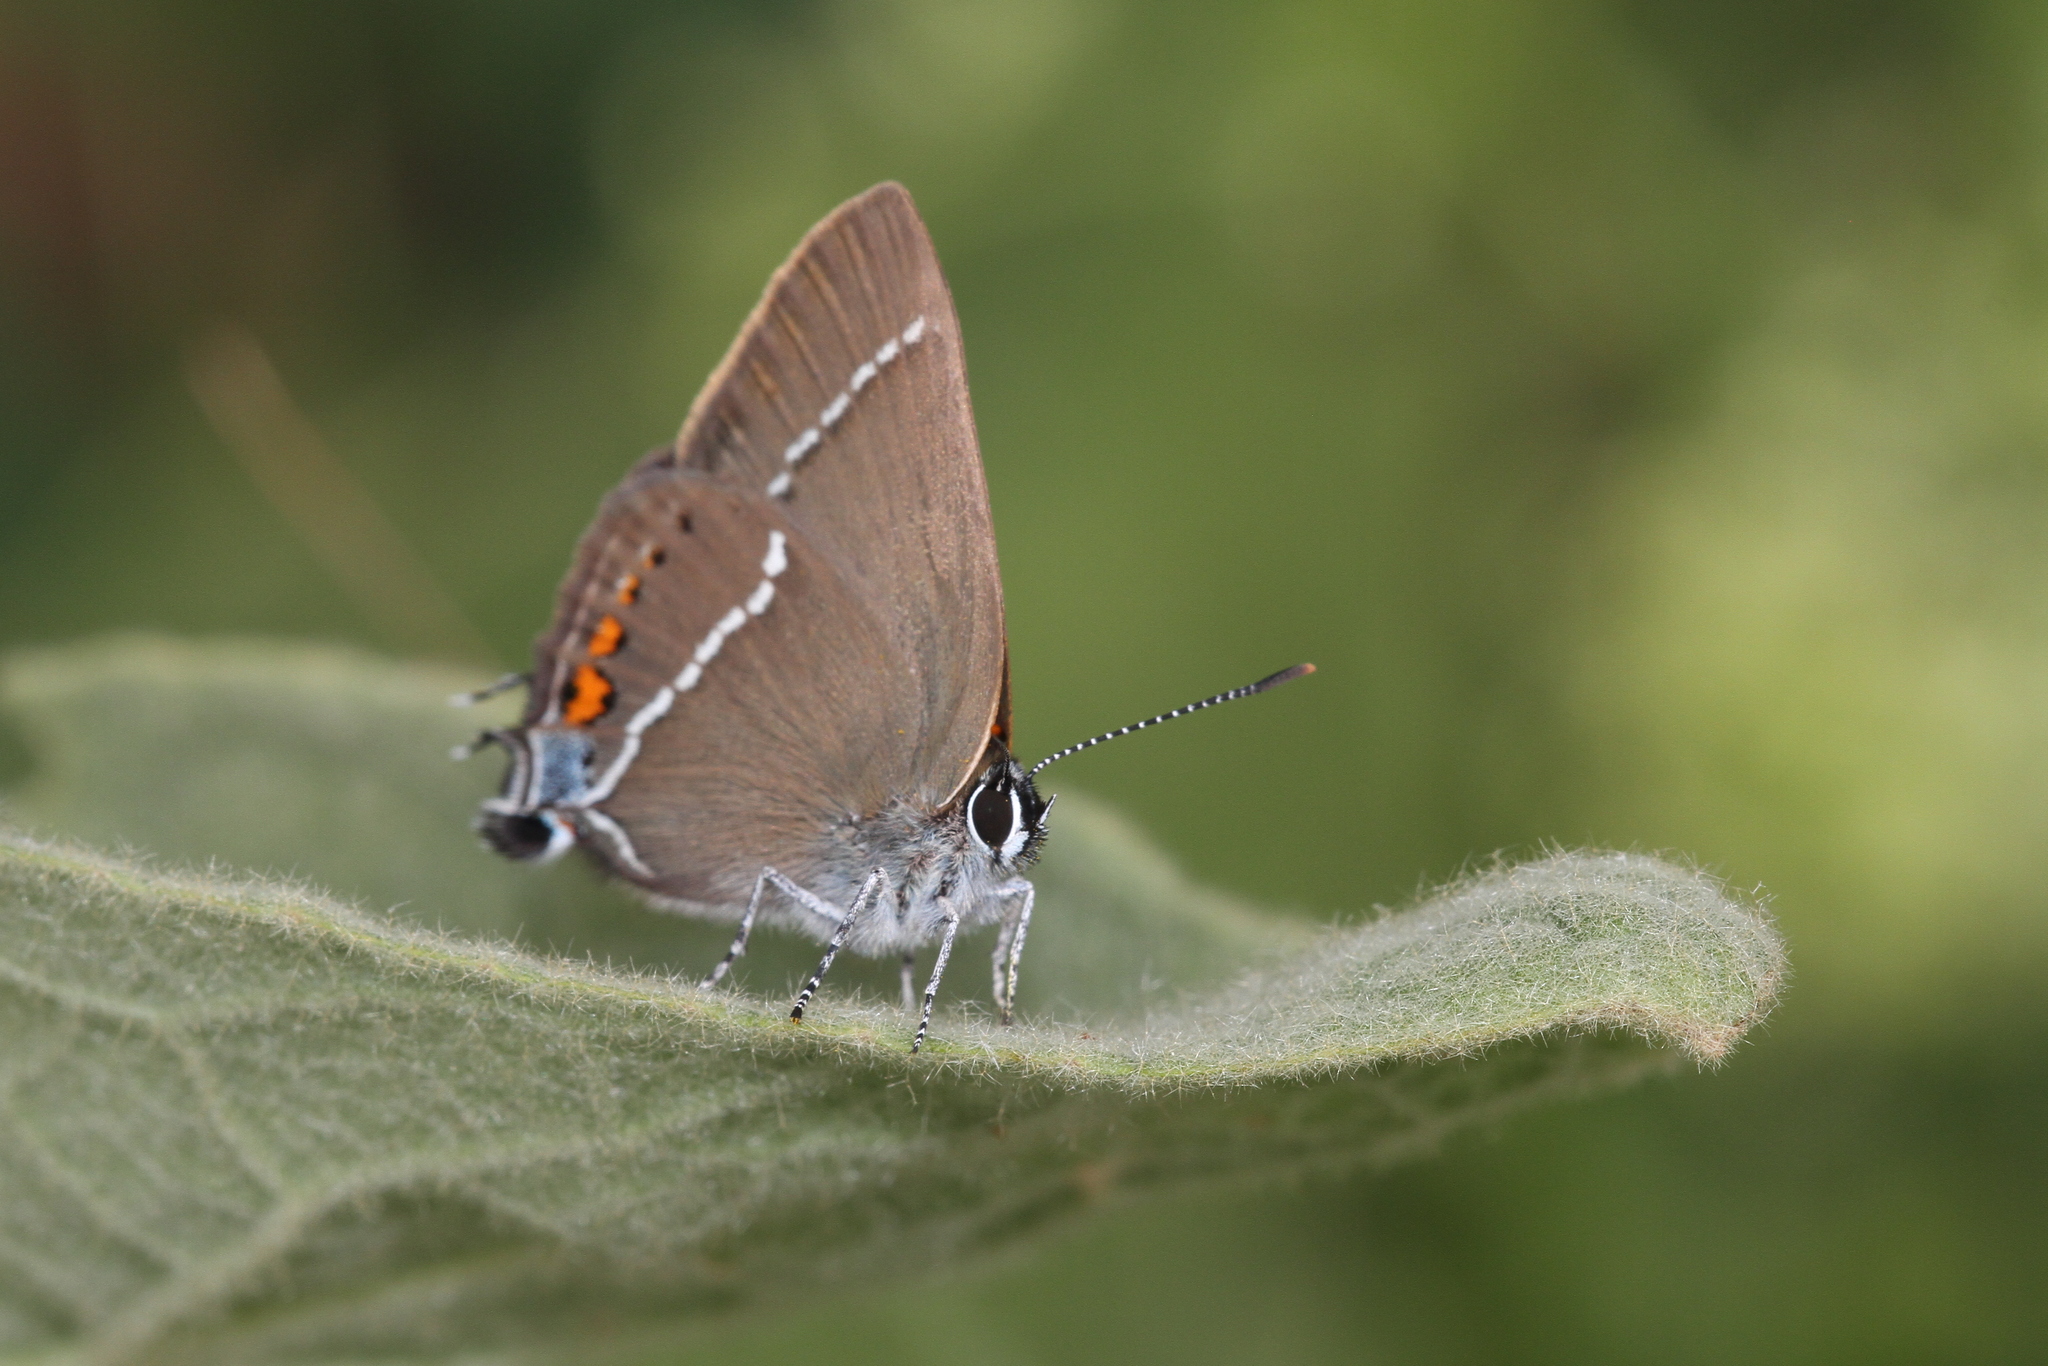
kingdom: Animalia
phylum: Arthropoda
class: Insecta
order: Lepidoptera
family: Lycaenidae
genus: Tuttiola
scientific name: Tuttiola spini
